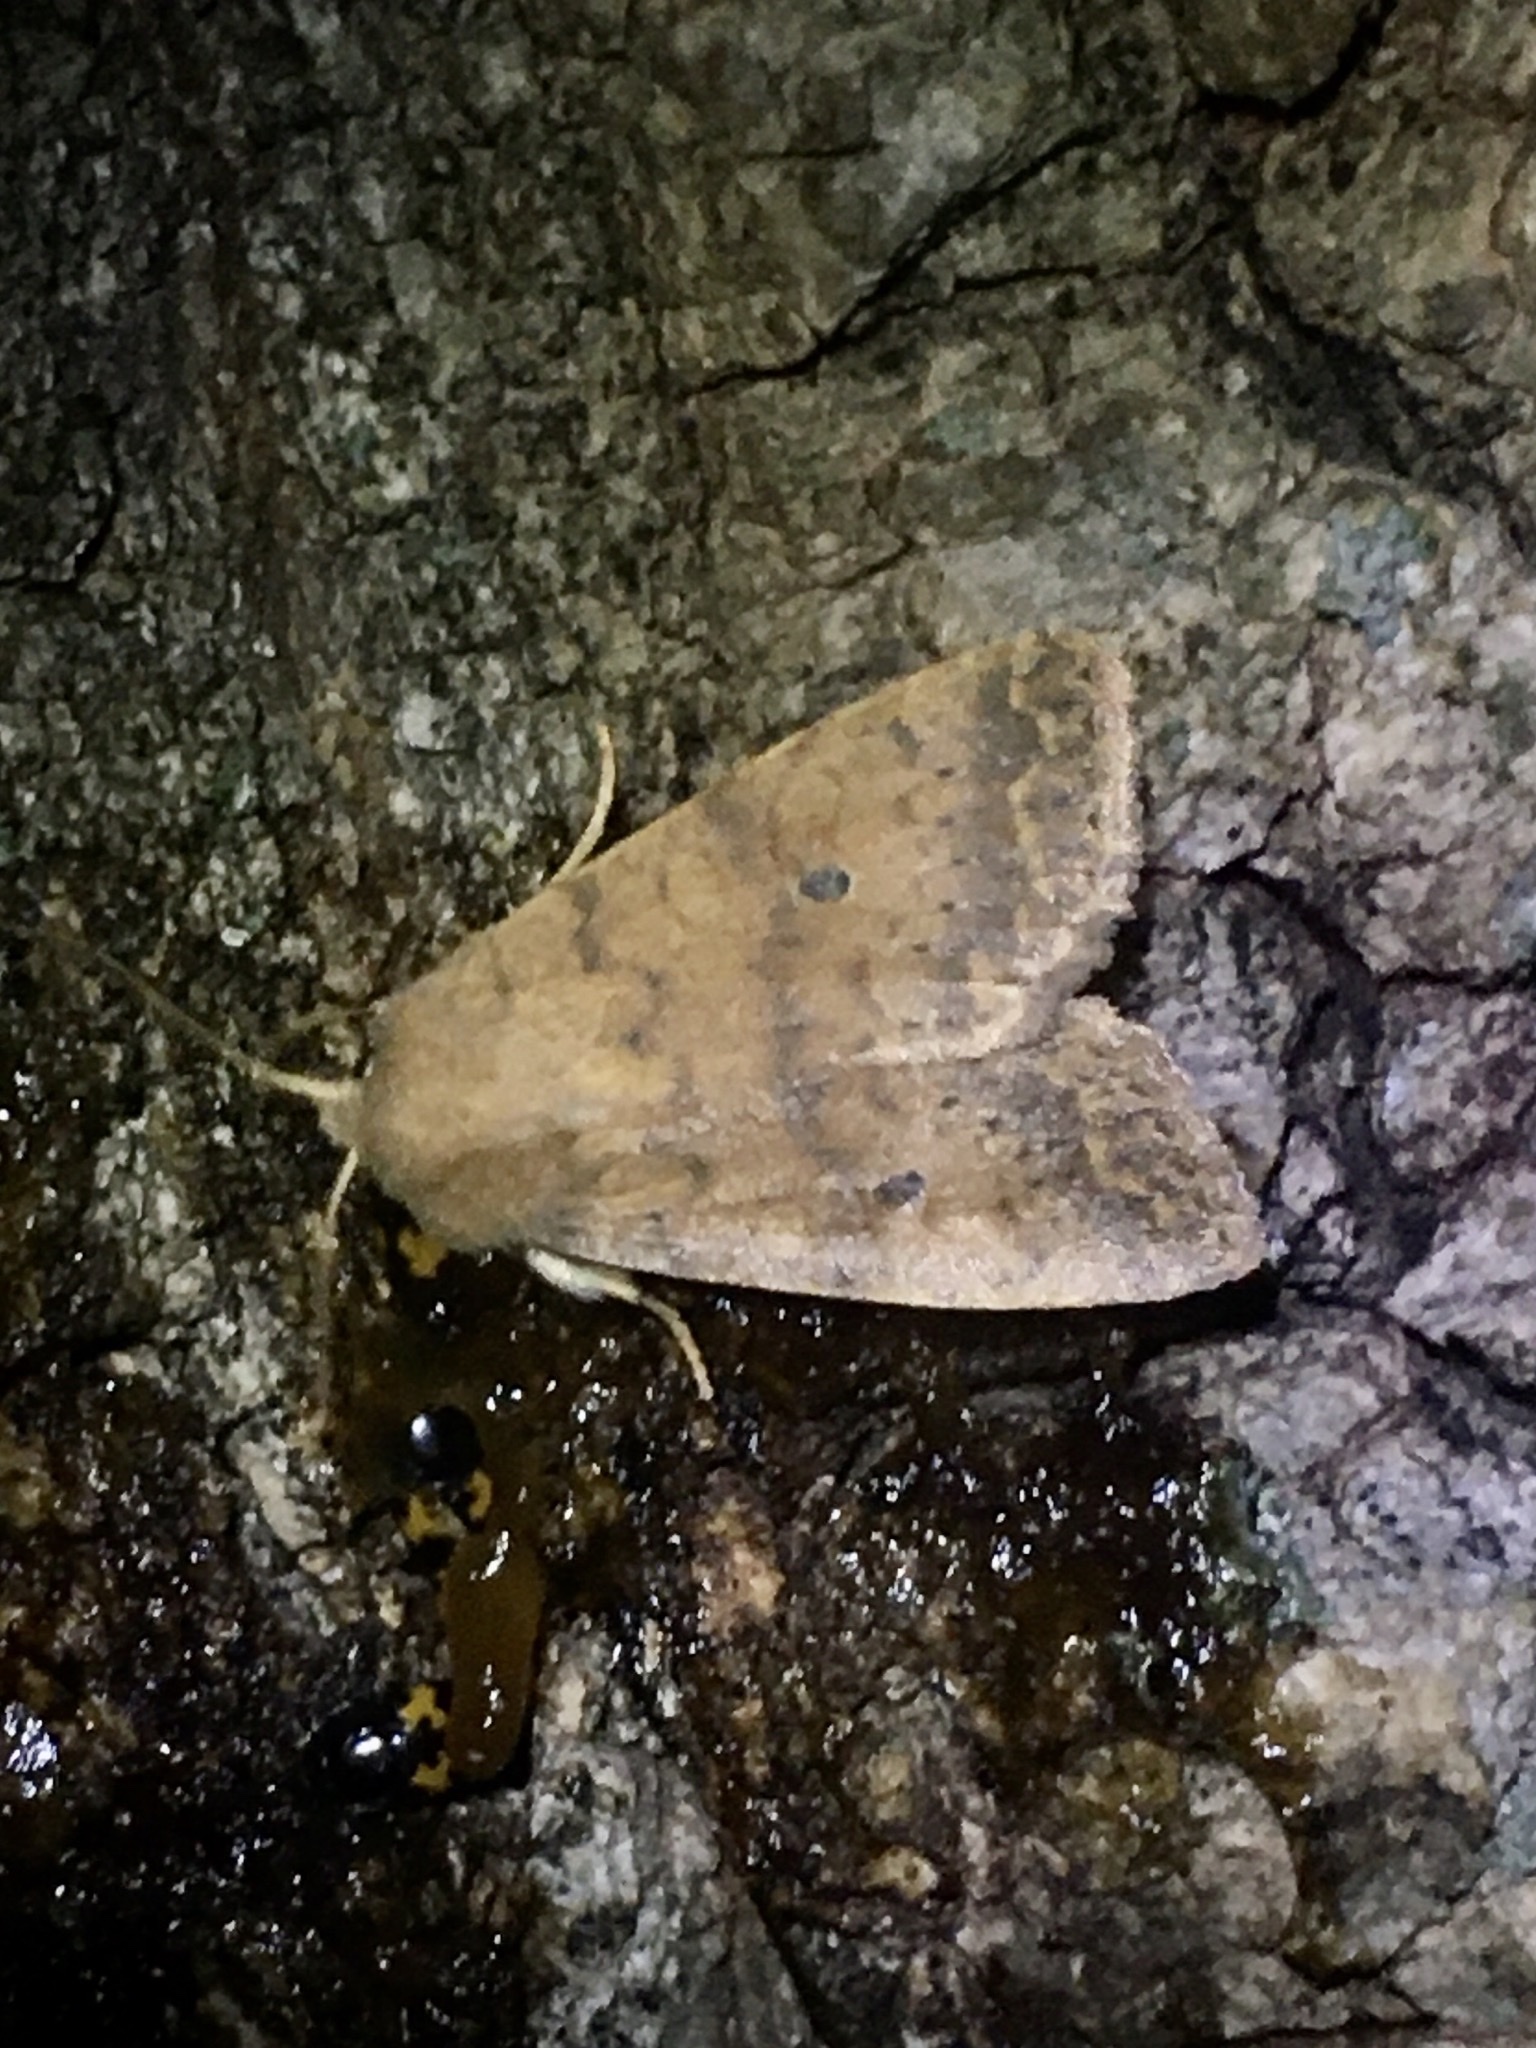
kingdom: Animalia
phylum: Arthropoda
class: Insecta
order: Lepidoptera
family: Noctuidae
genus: Agrochola
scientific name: Agrochola bicolorago
